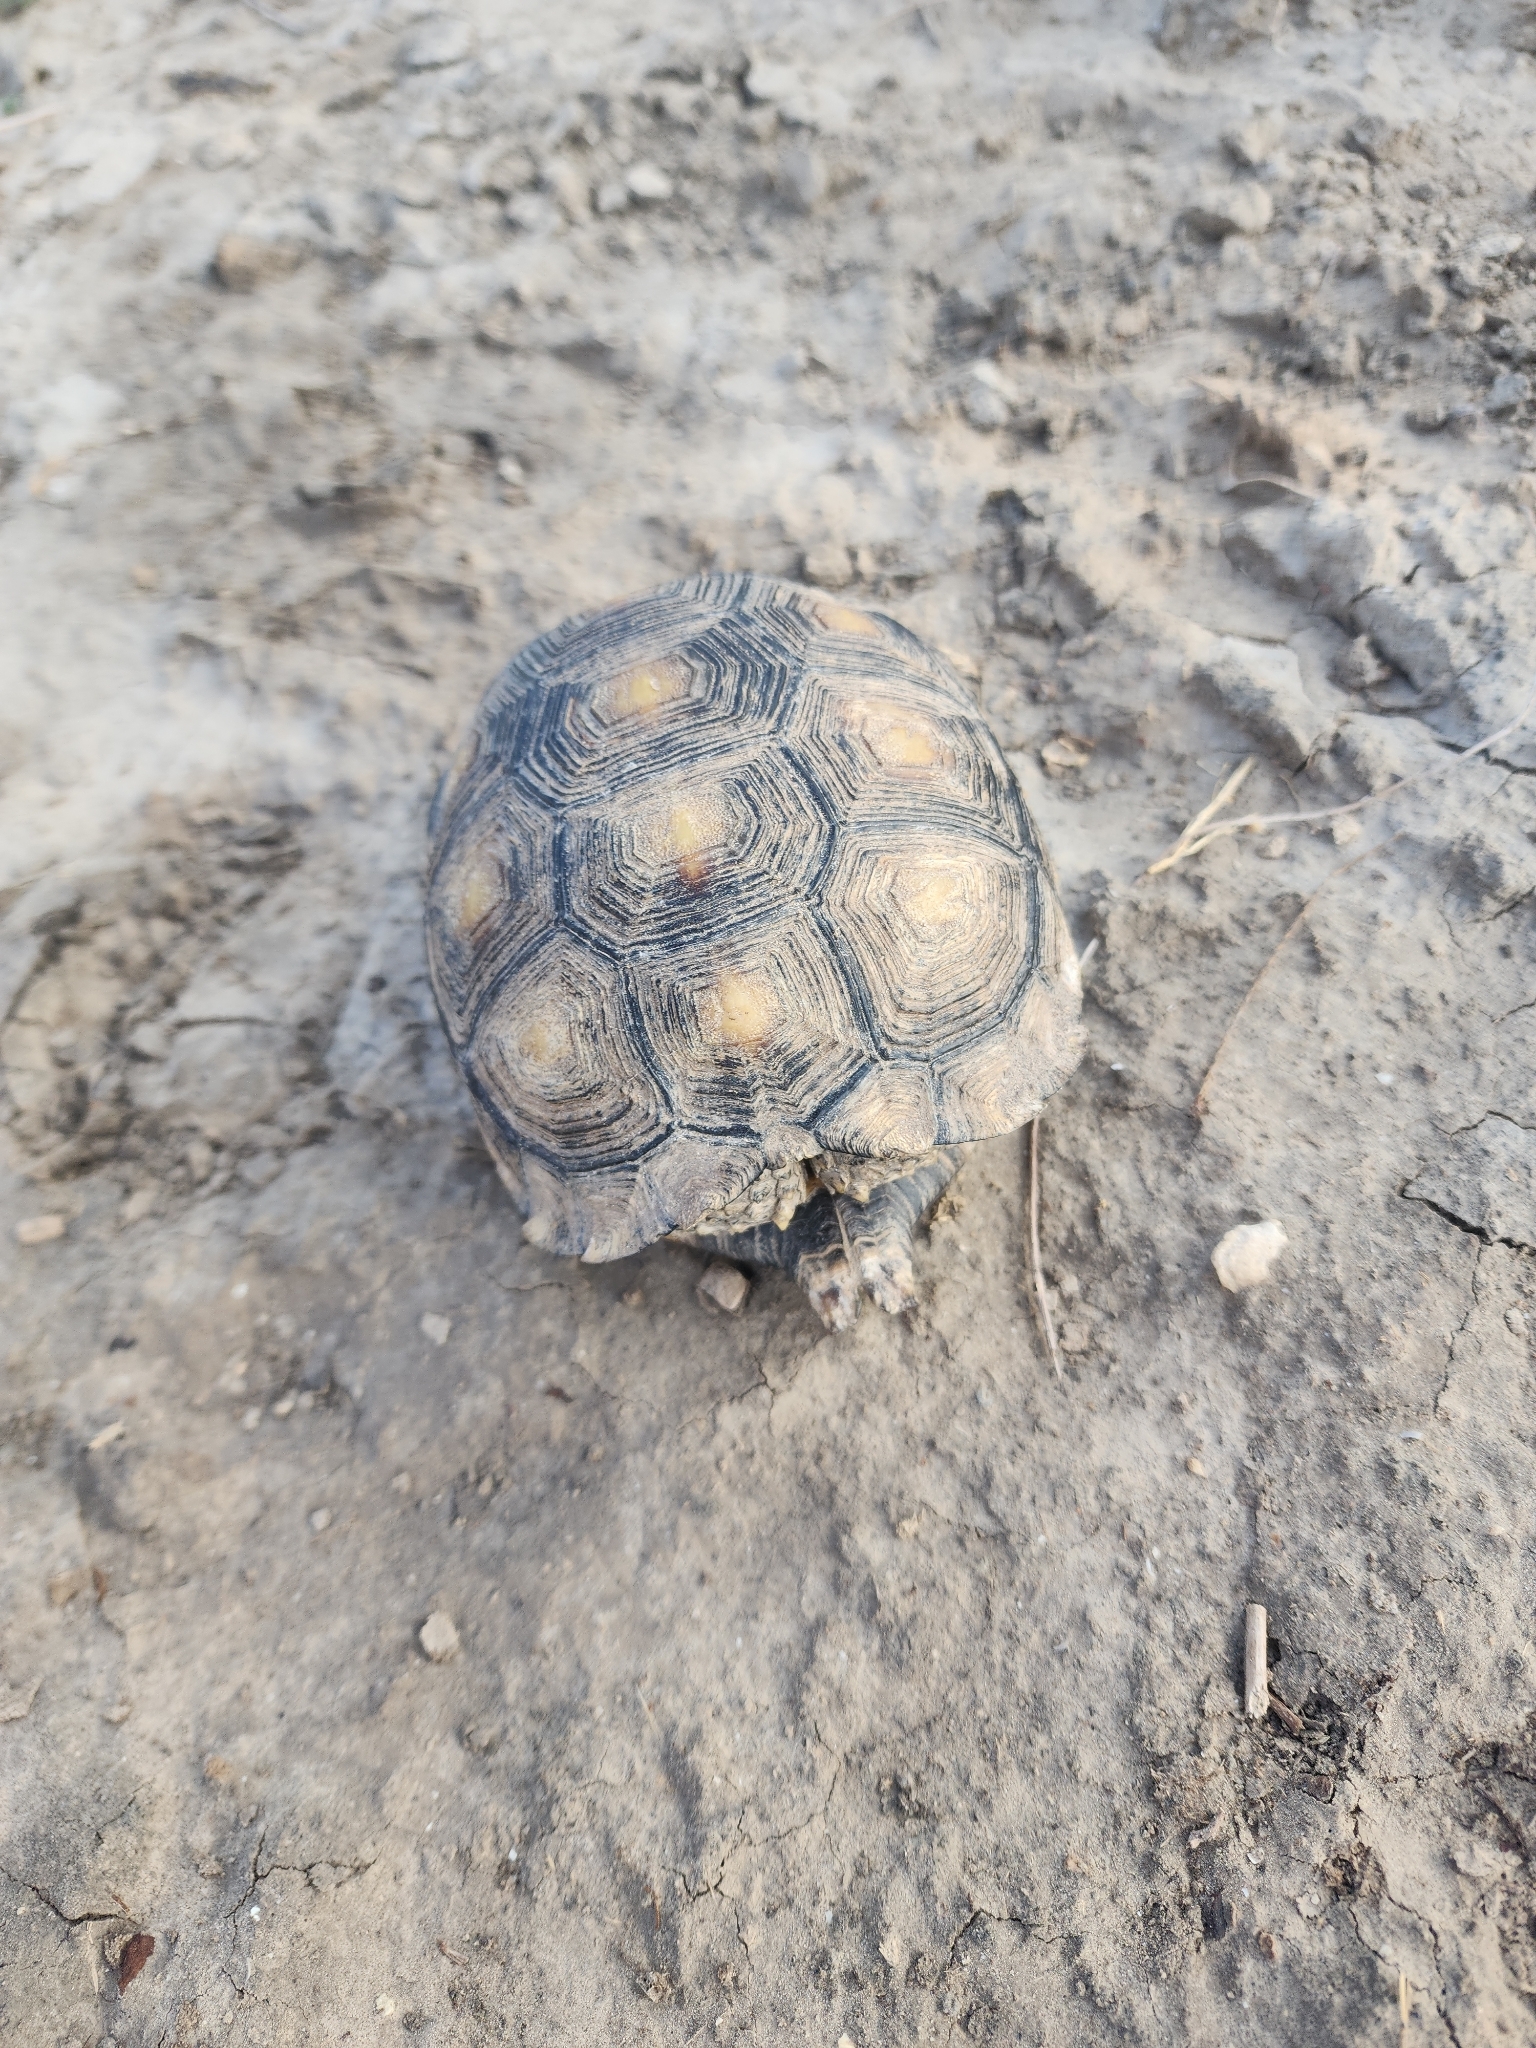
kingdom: Animalia
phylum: Chordata
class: Testudines
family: Testudinidae
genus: Gopherus
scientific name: Gopherus berlandieri
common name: Texas (gopher )tortoise
